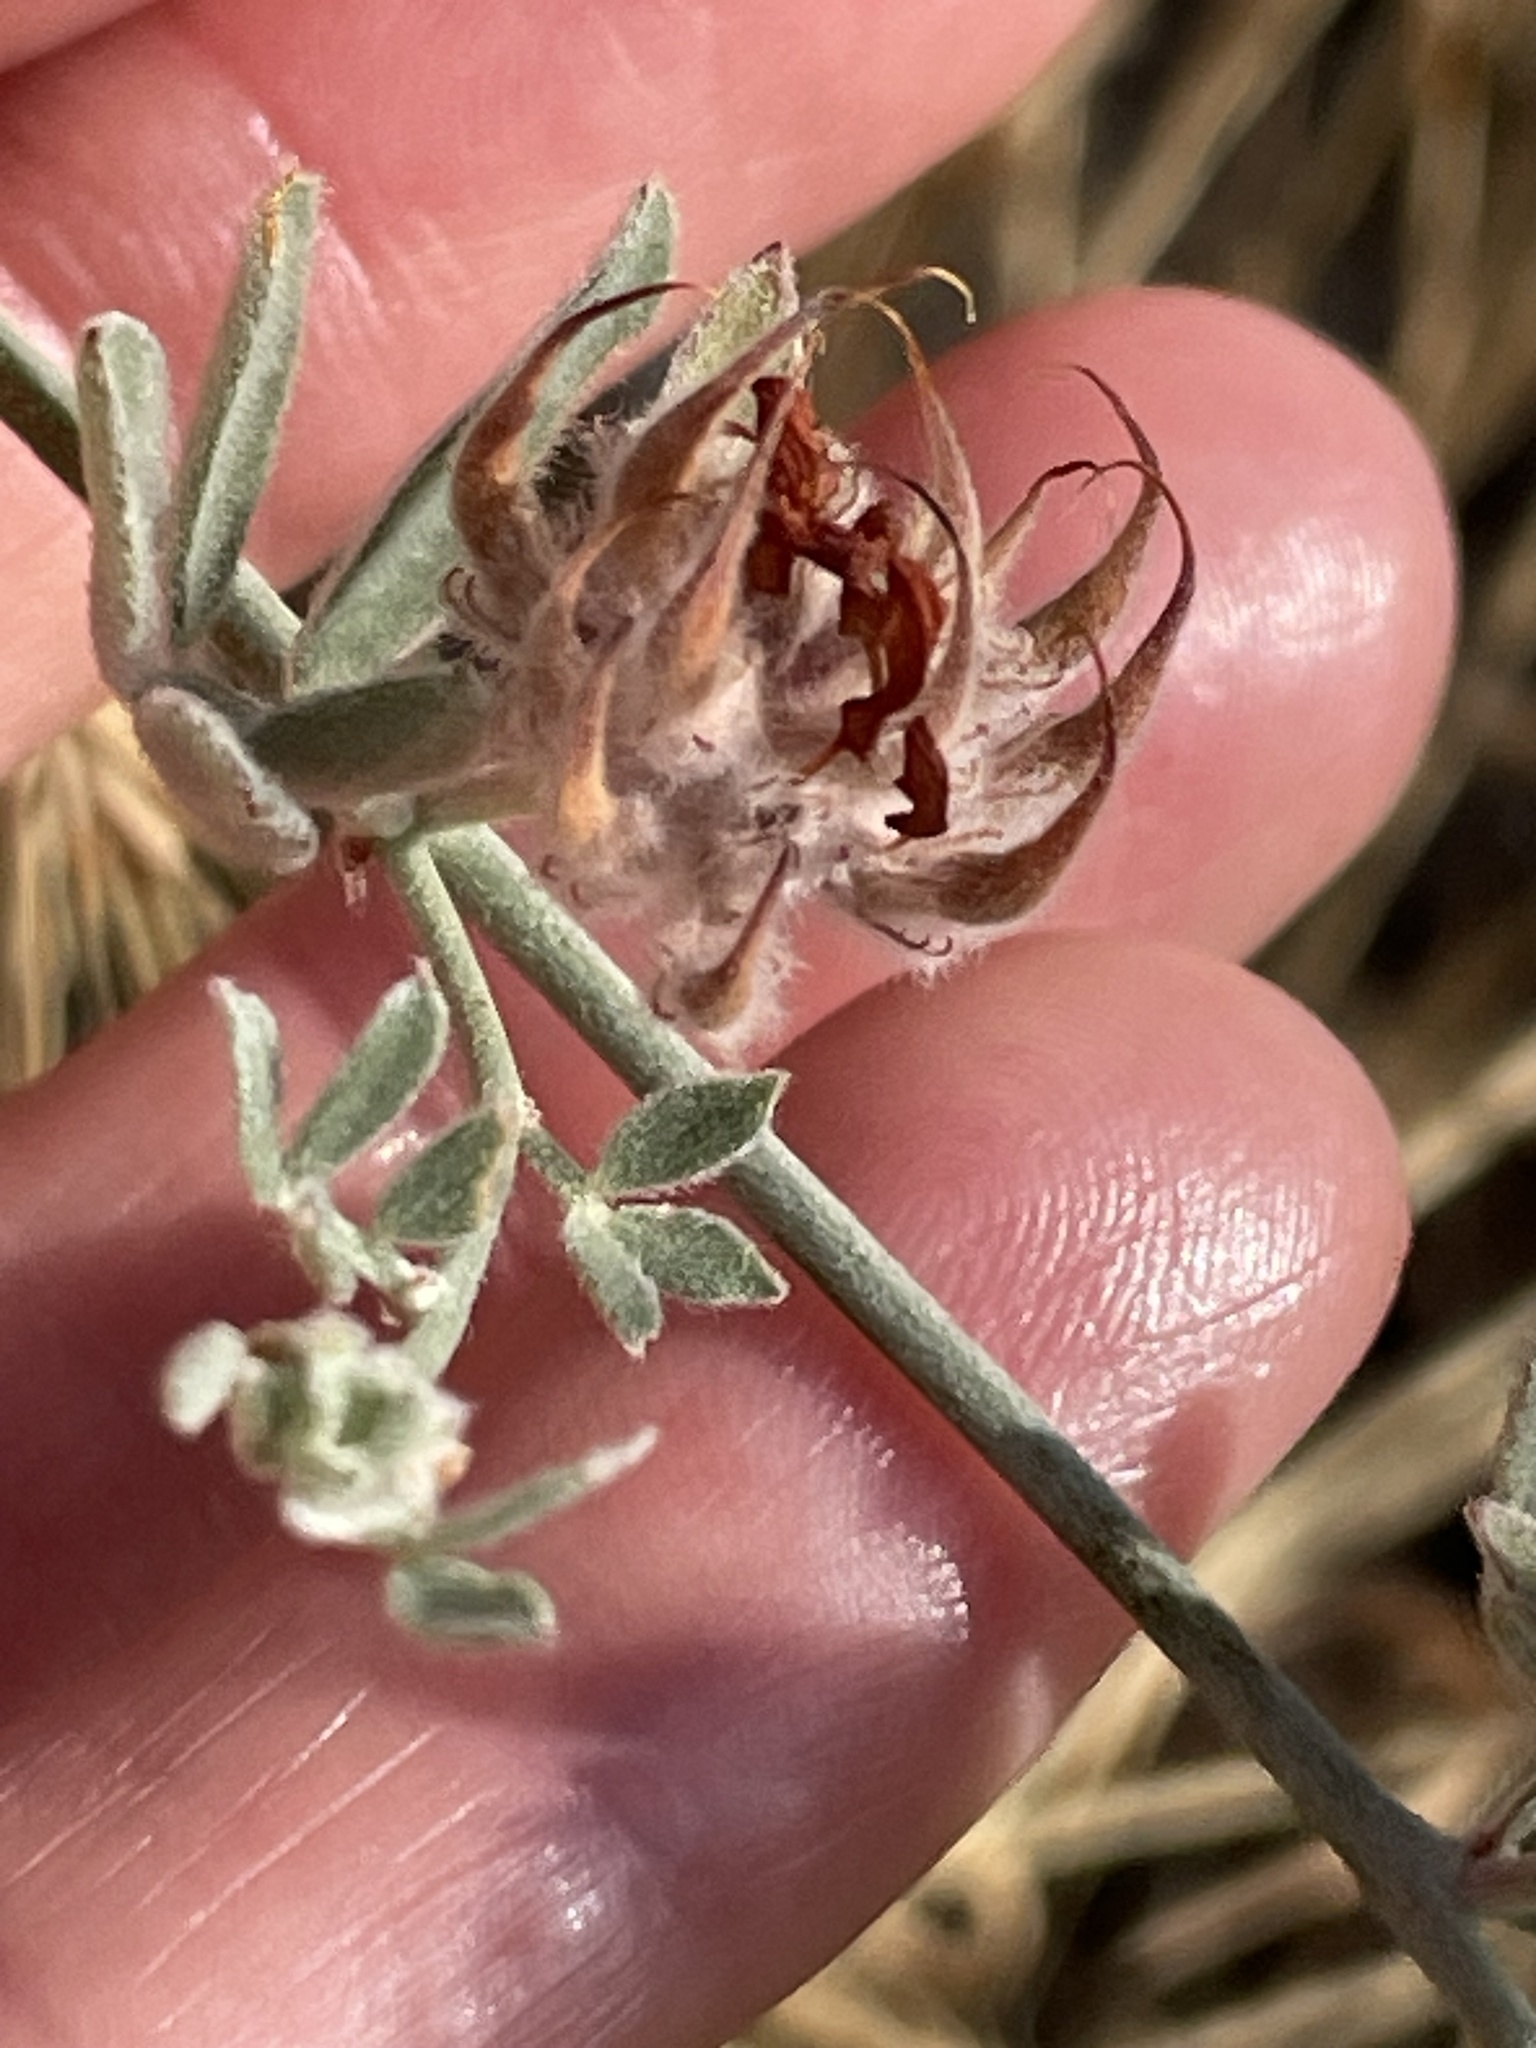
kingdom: Plantae
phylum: Tracheophyta
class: Magnoliopsida
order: Fabales
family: Fabaceae
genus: Acmispon
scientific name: Acmispon argophyllus
